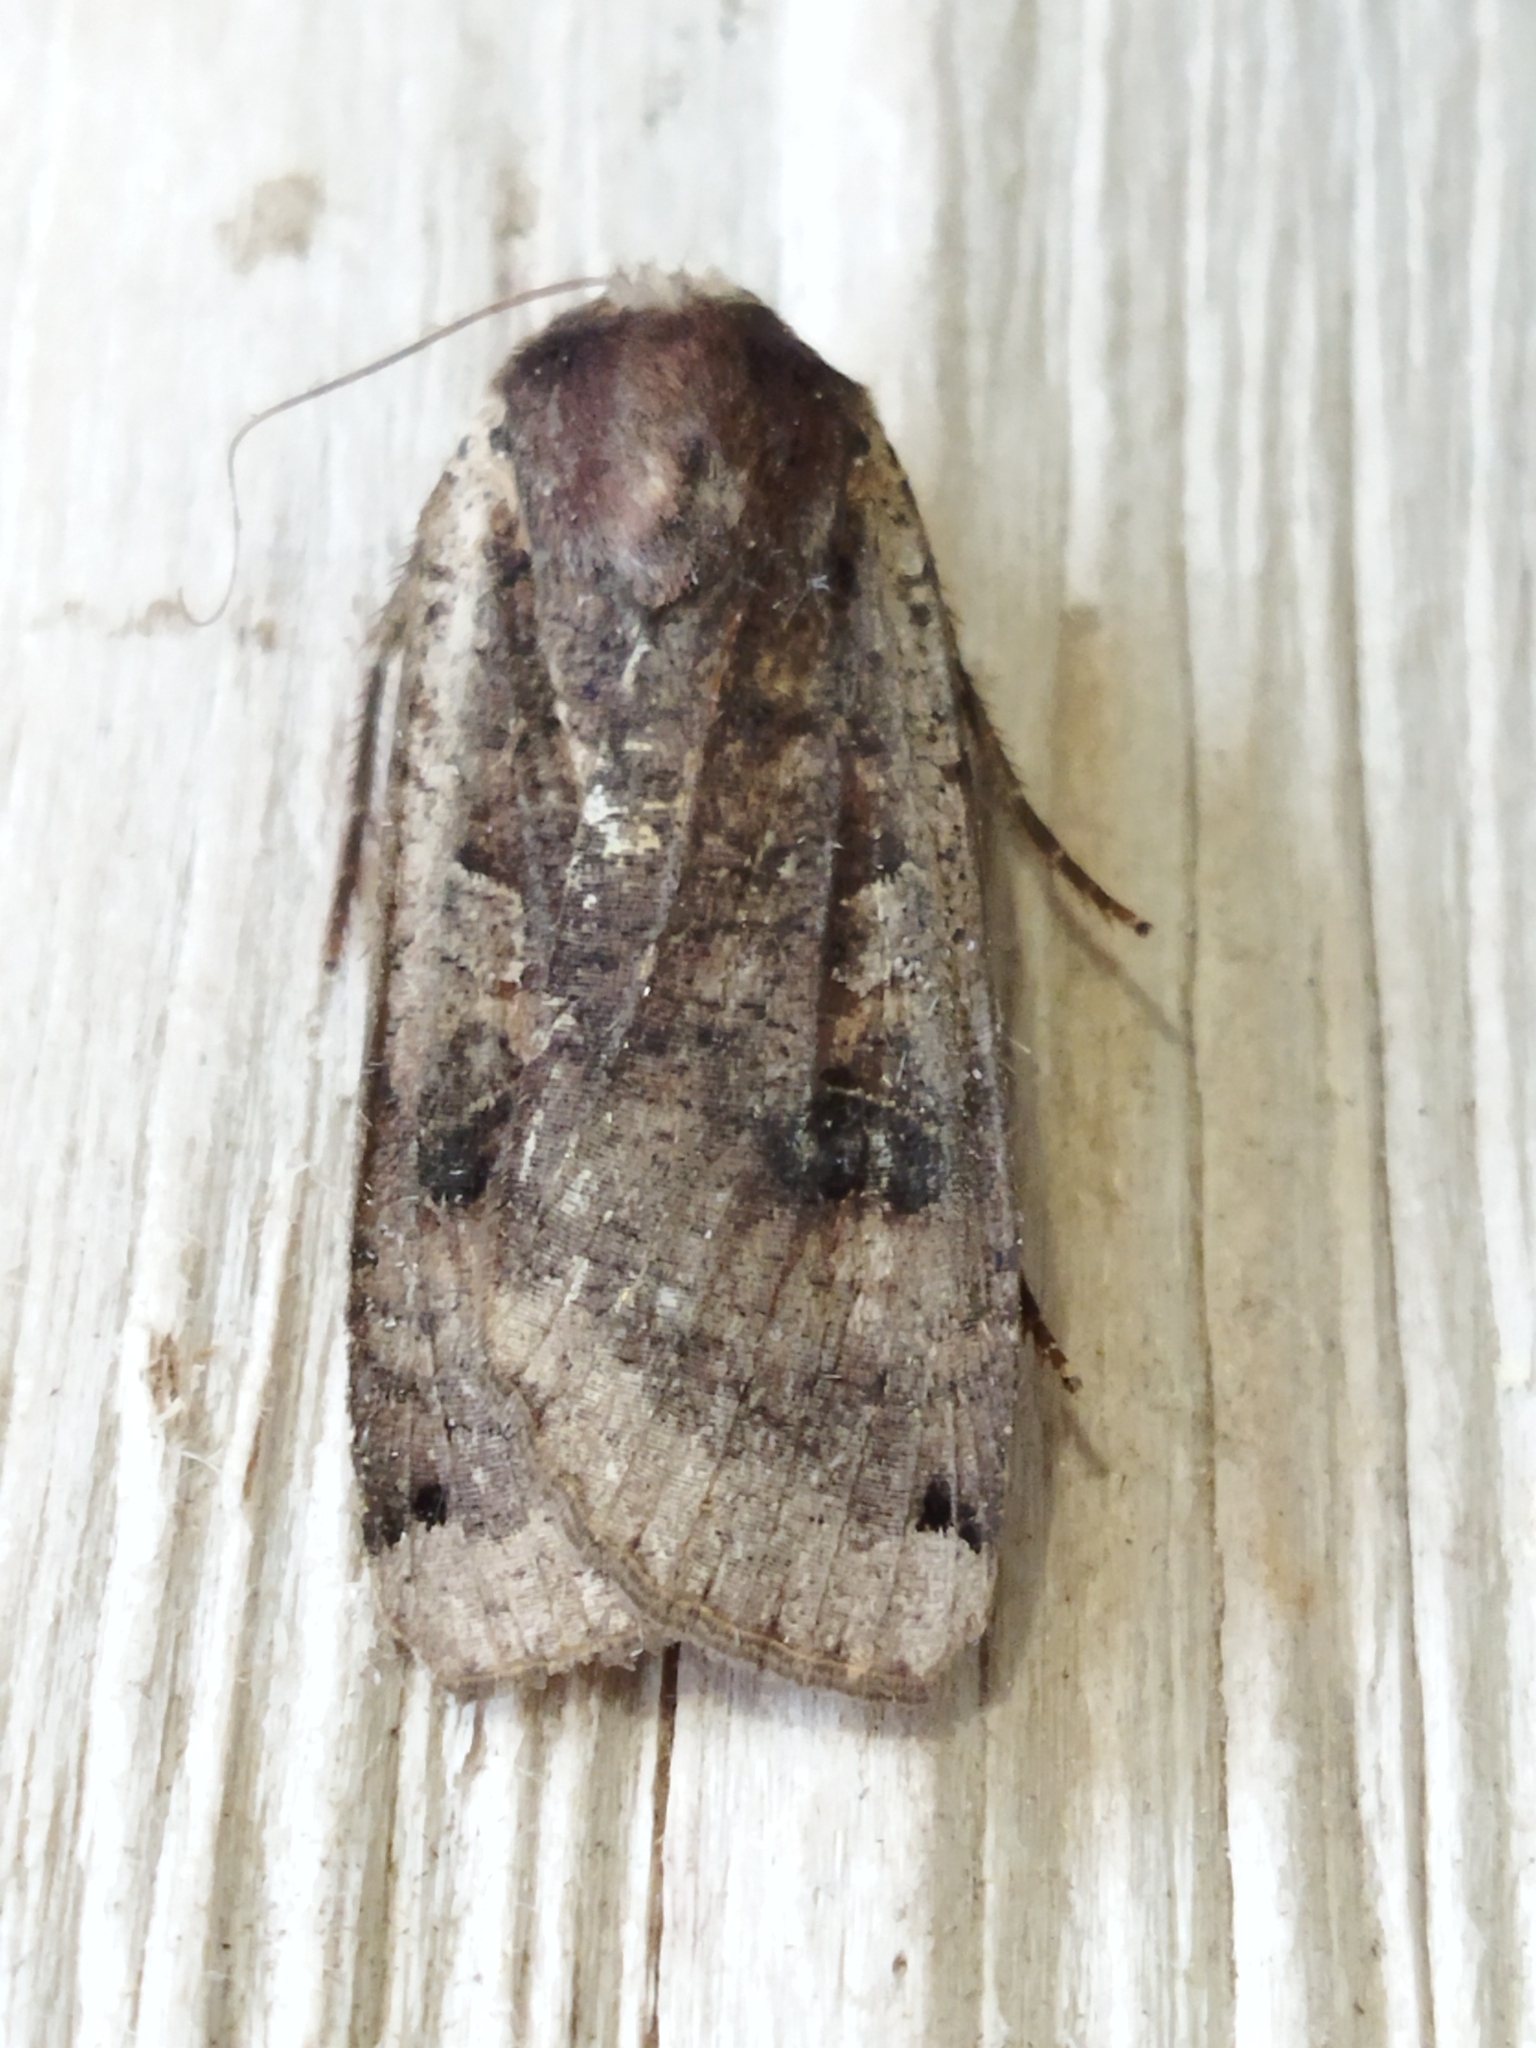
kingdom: Animalia
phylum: Arthropoda
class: Insecta
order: Lepidoptera
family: Noctuidae
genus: Noctua
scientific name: Noctua pronuba
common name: Large yellow underwing
